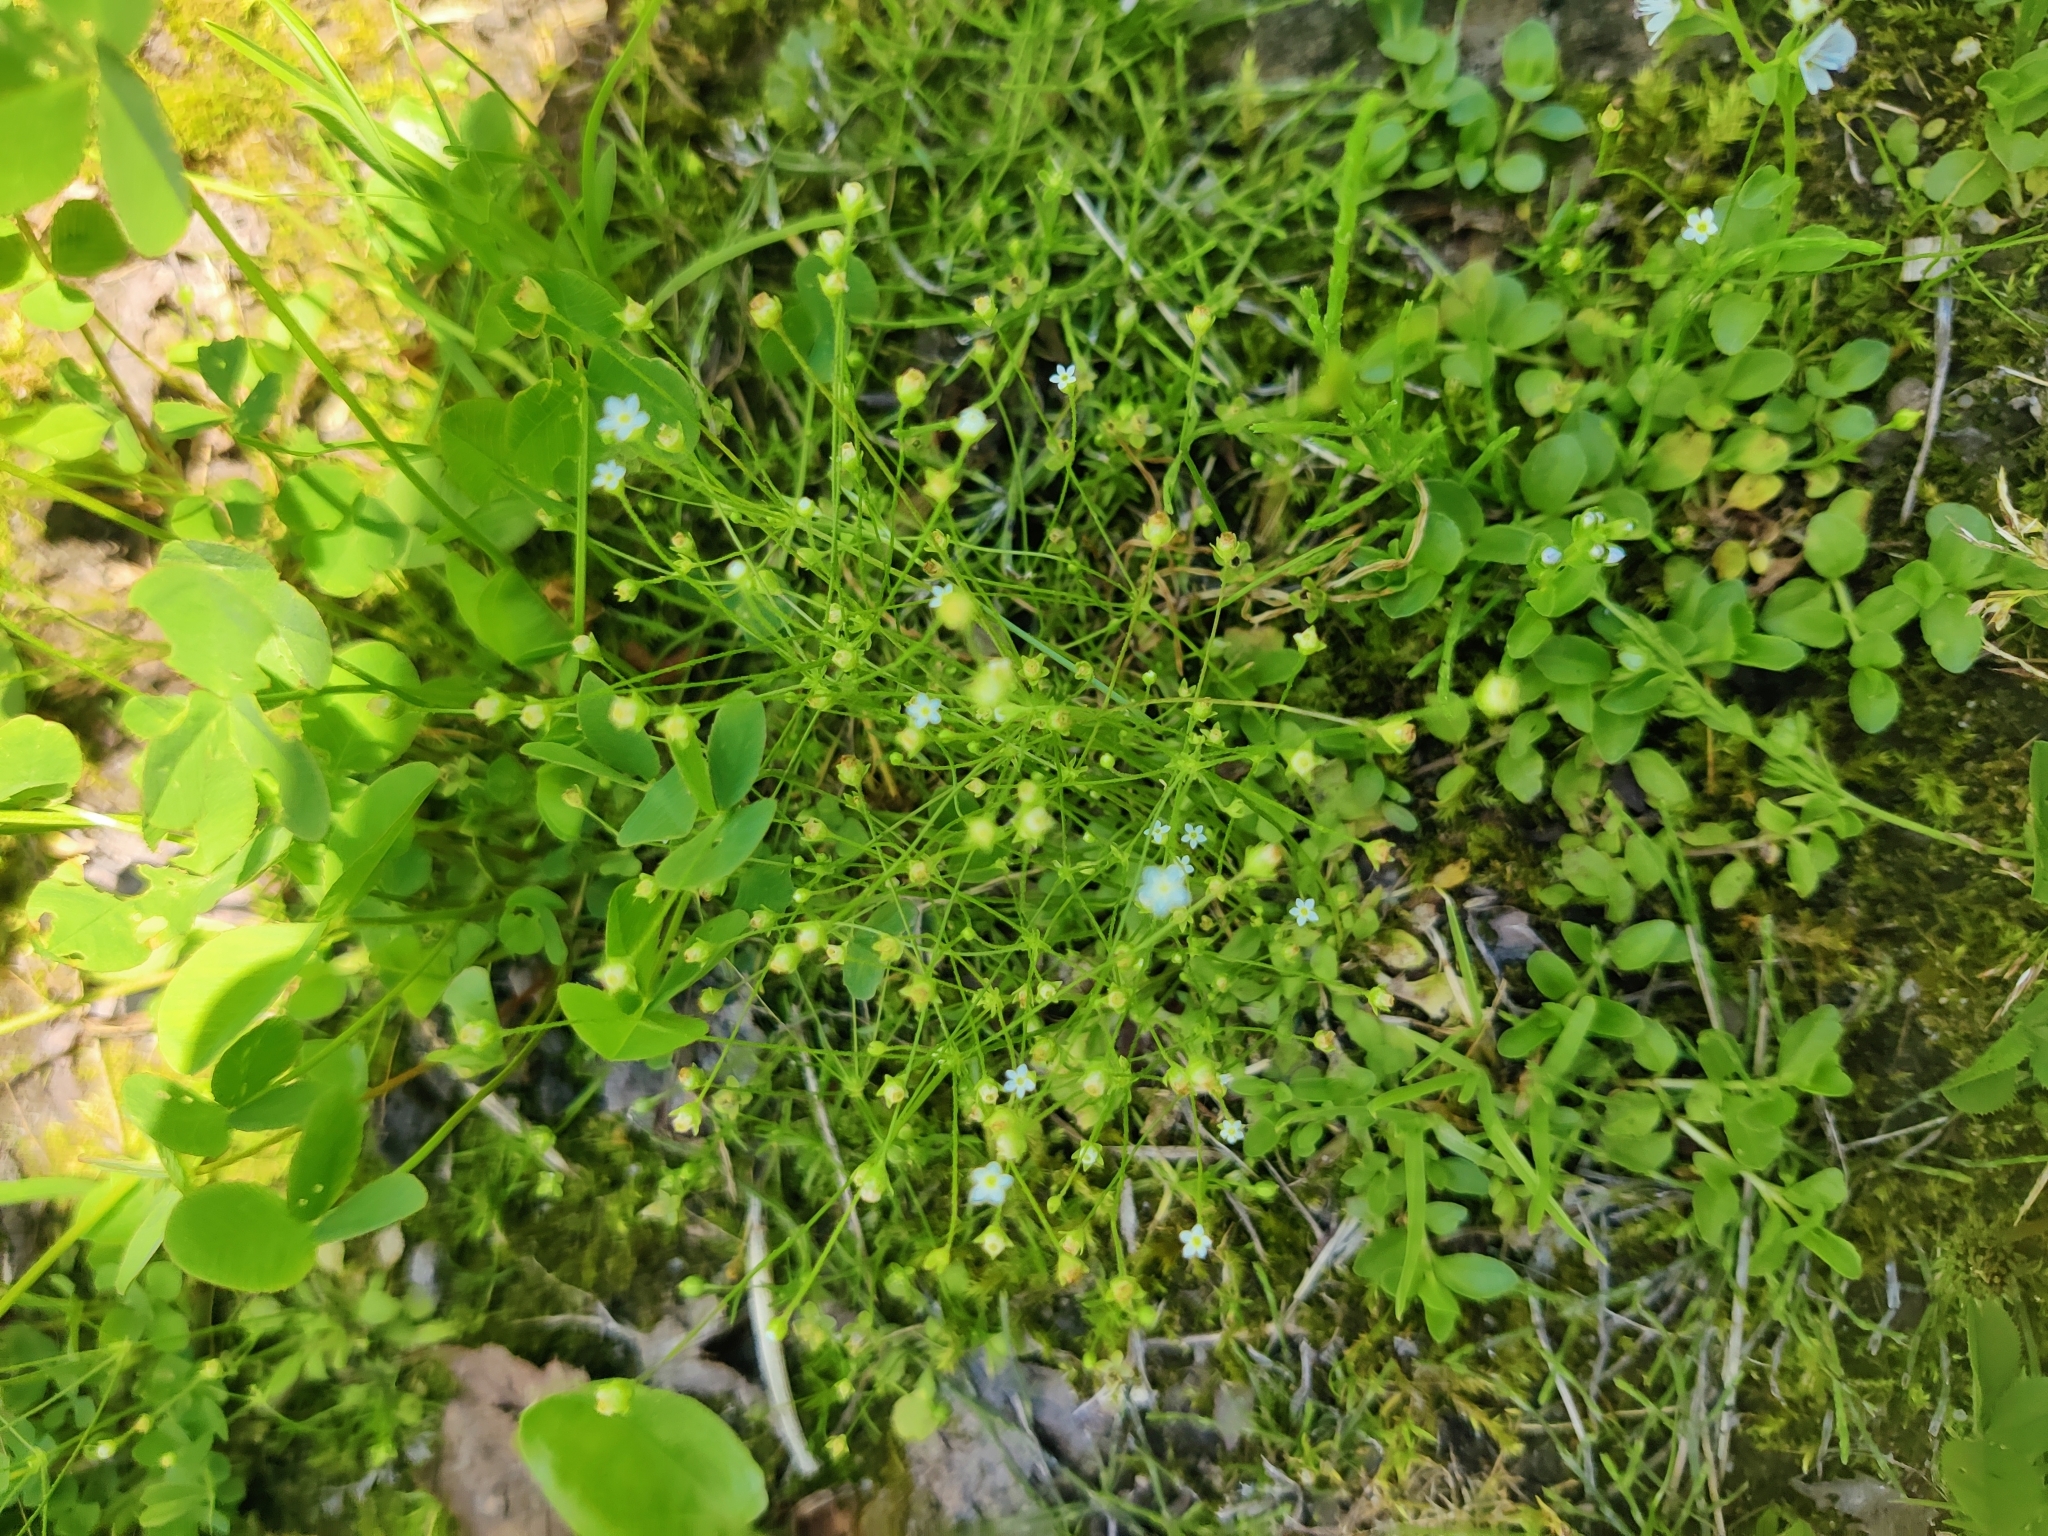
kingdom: Plantae
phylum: Tracheophyta
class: Magnoliopsida
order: Ericales
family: Primulaceae
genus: Androsace
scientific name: Androsace filiformis
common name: Filiform rock jasmine
